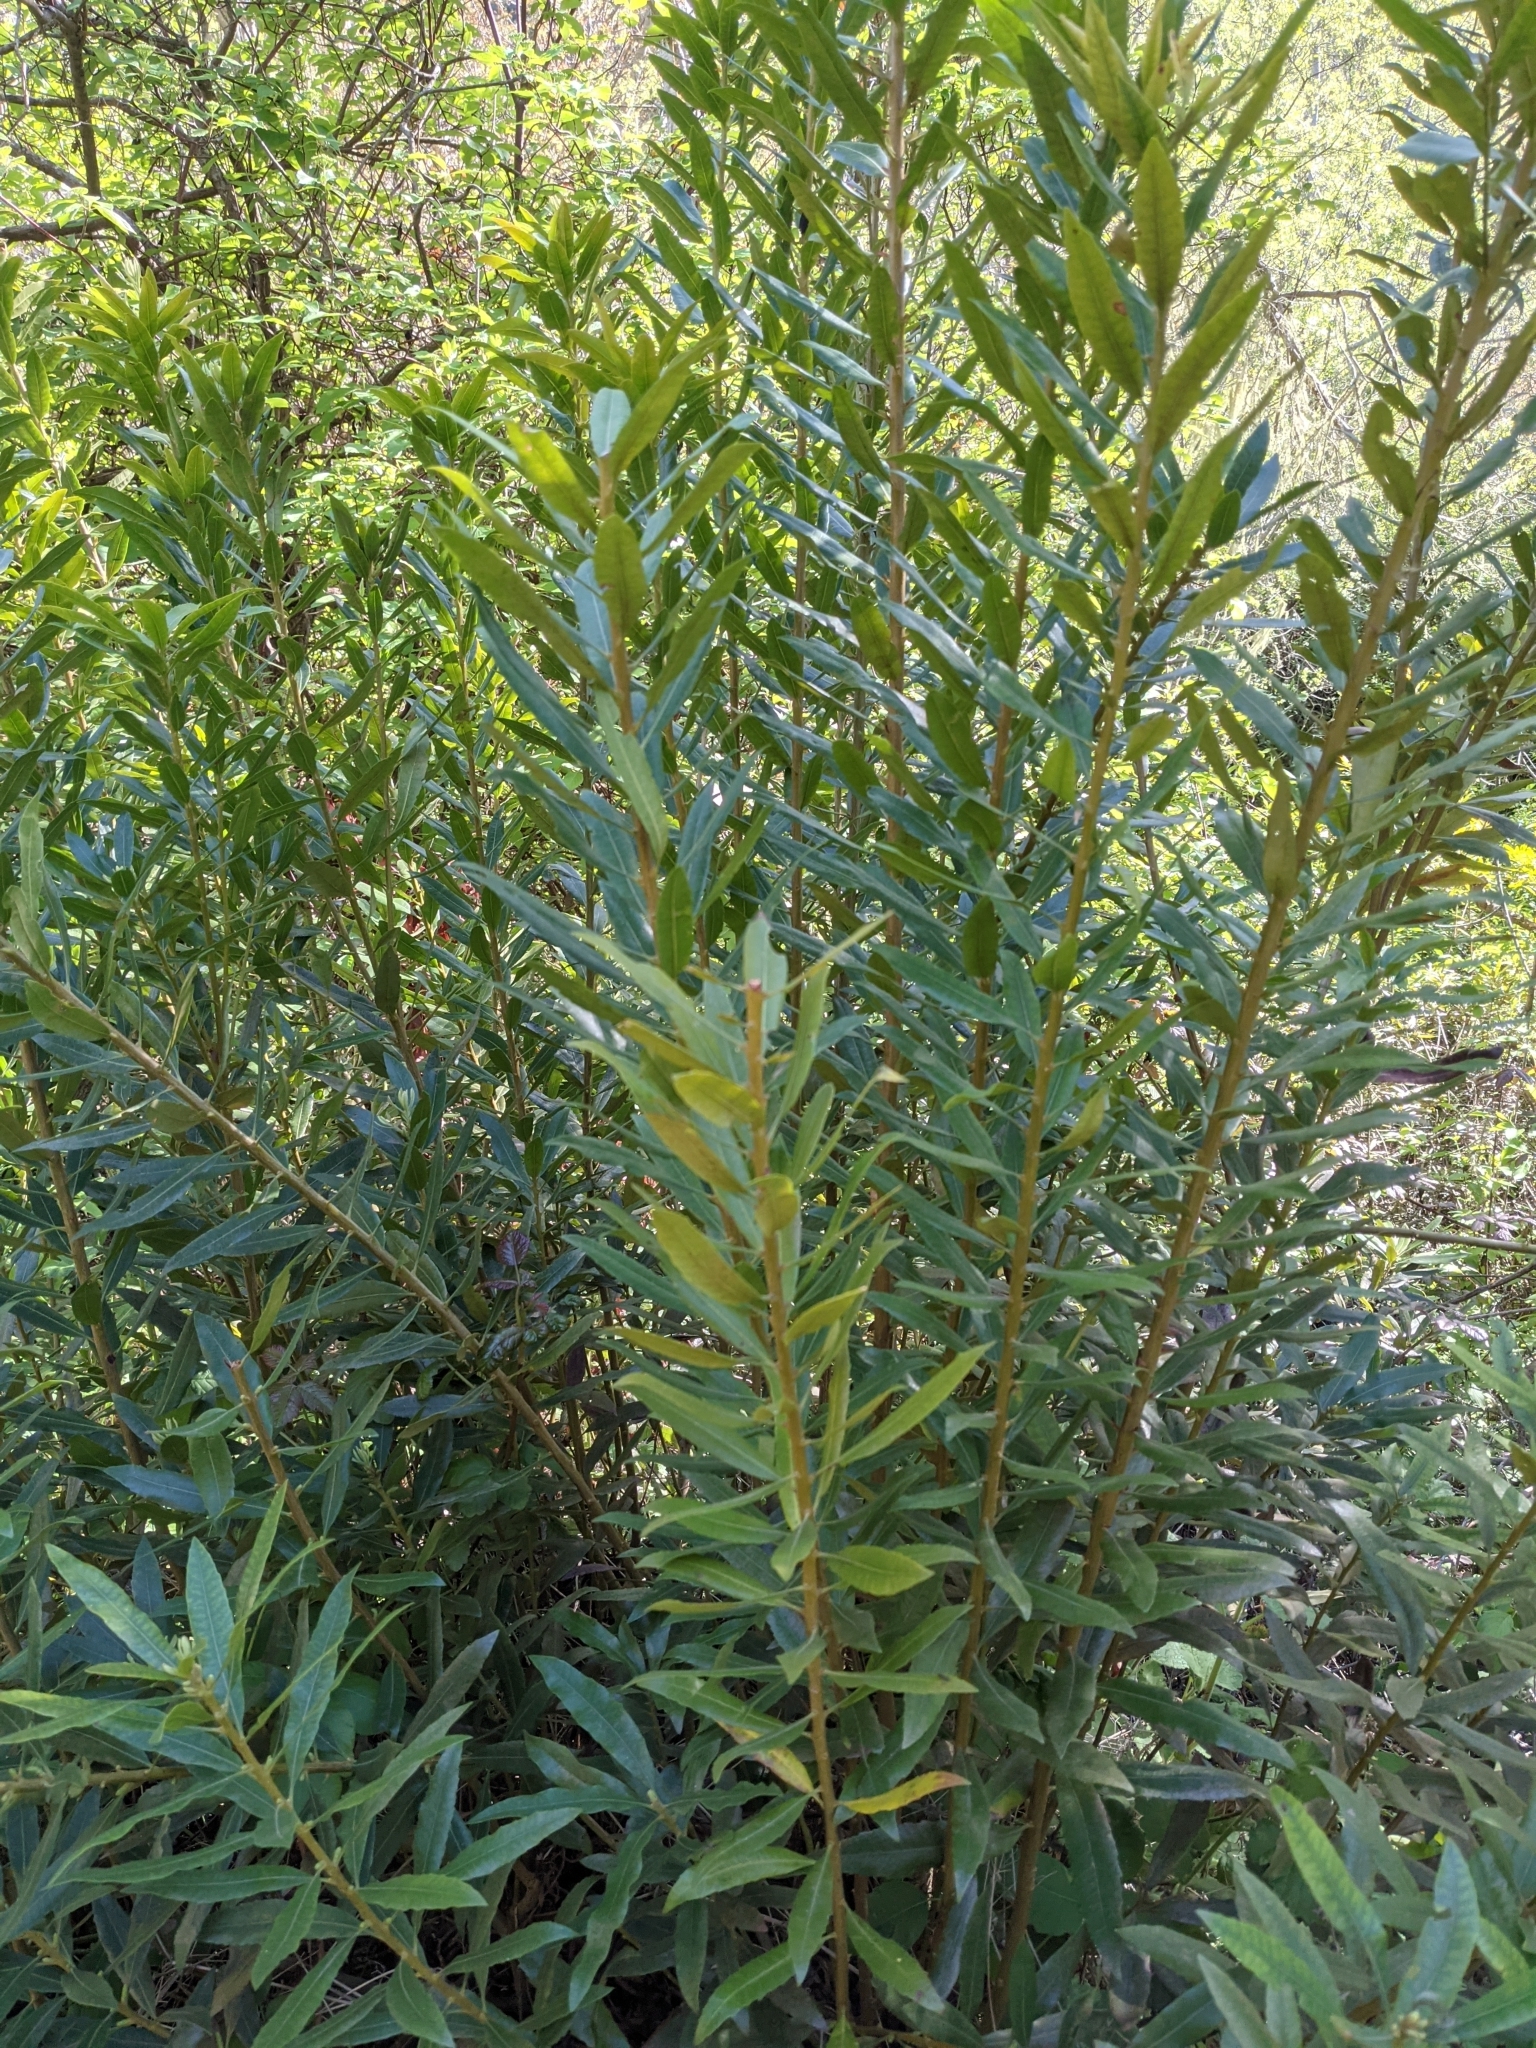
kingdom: Plantae
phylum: Tracheophyta
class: Magnoliopsida
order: Fagales
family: Myricaceae
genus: Morella
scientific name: Morella californica
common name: California wax-myrtle
